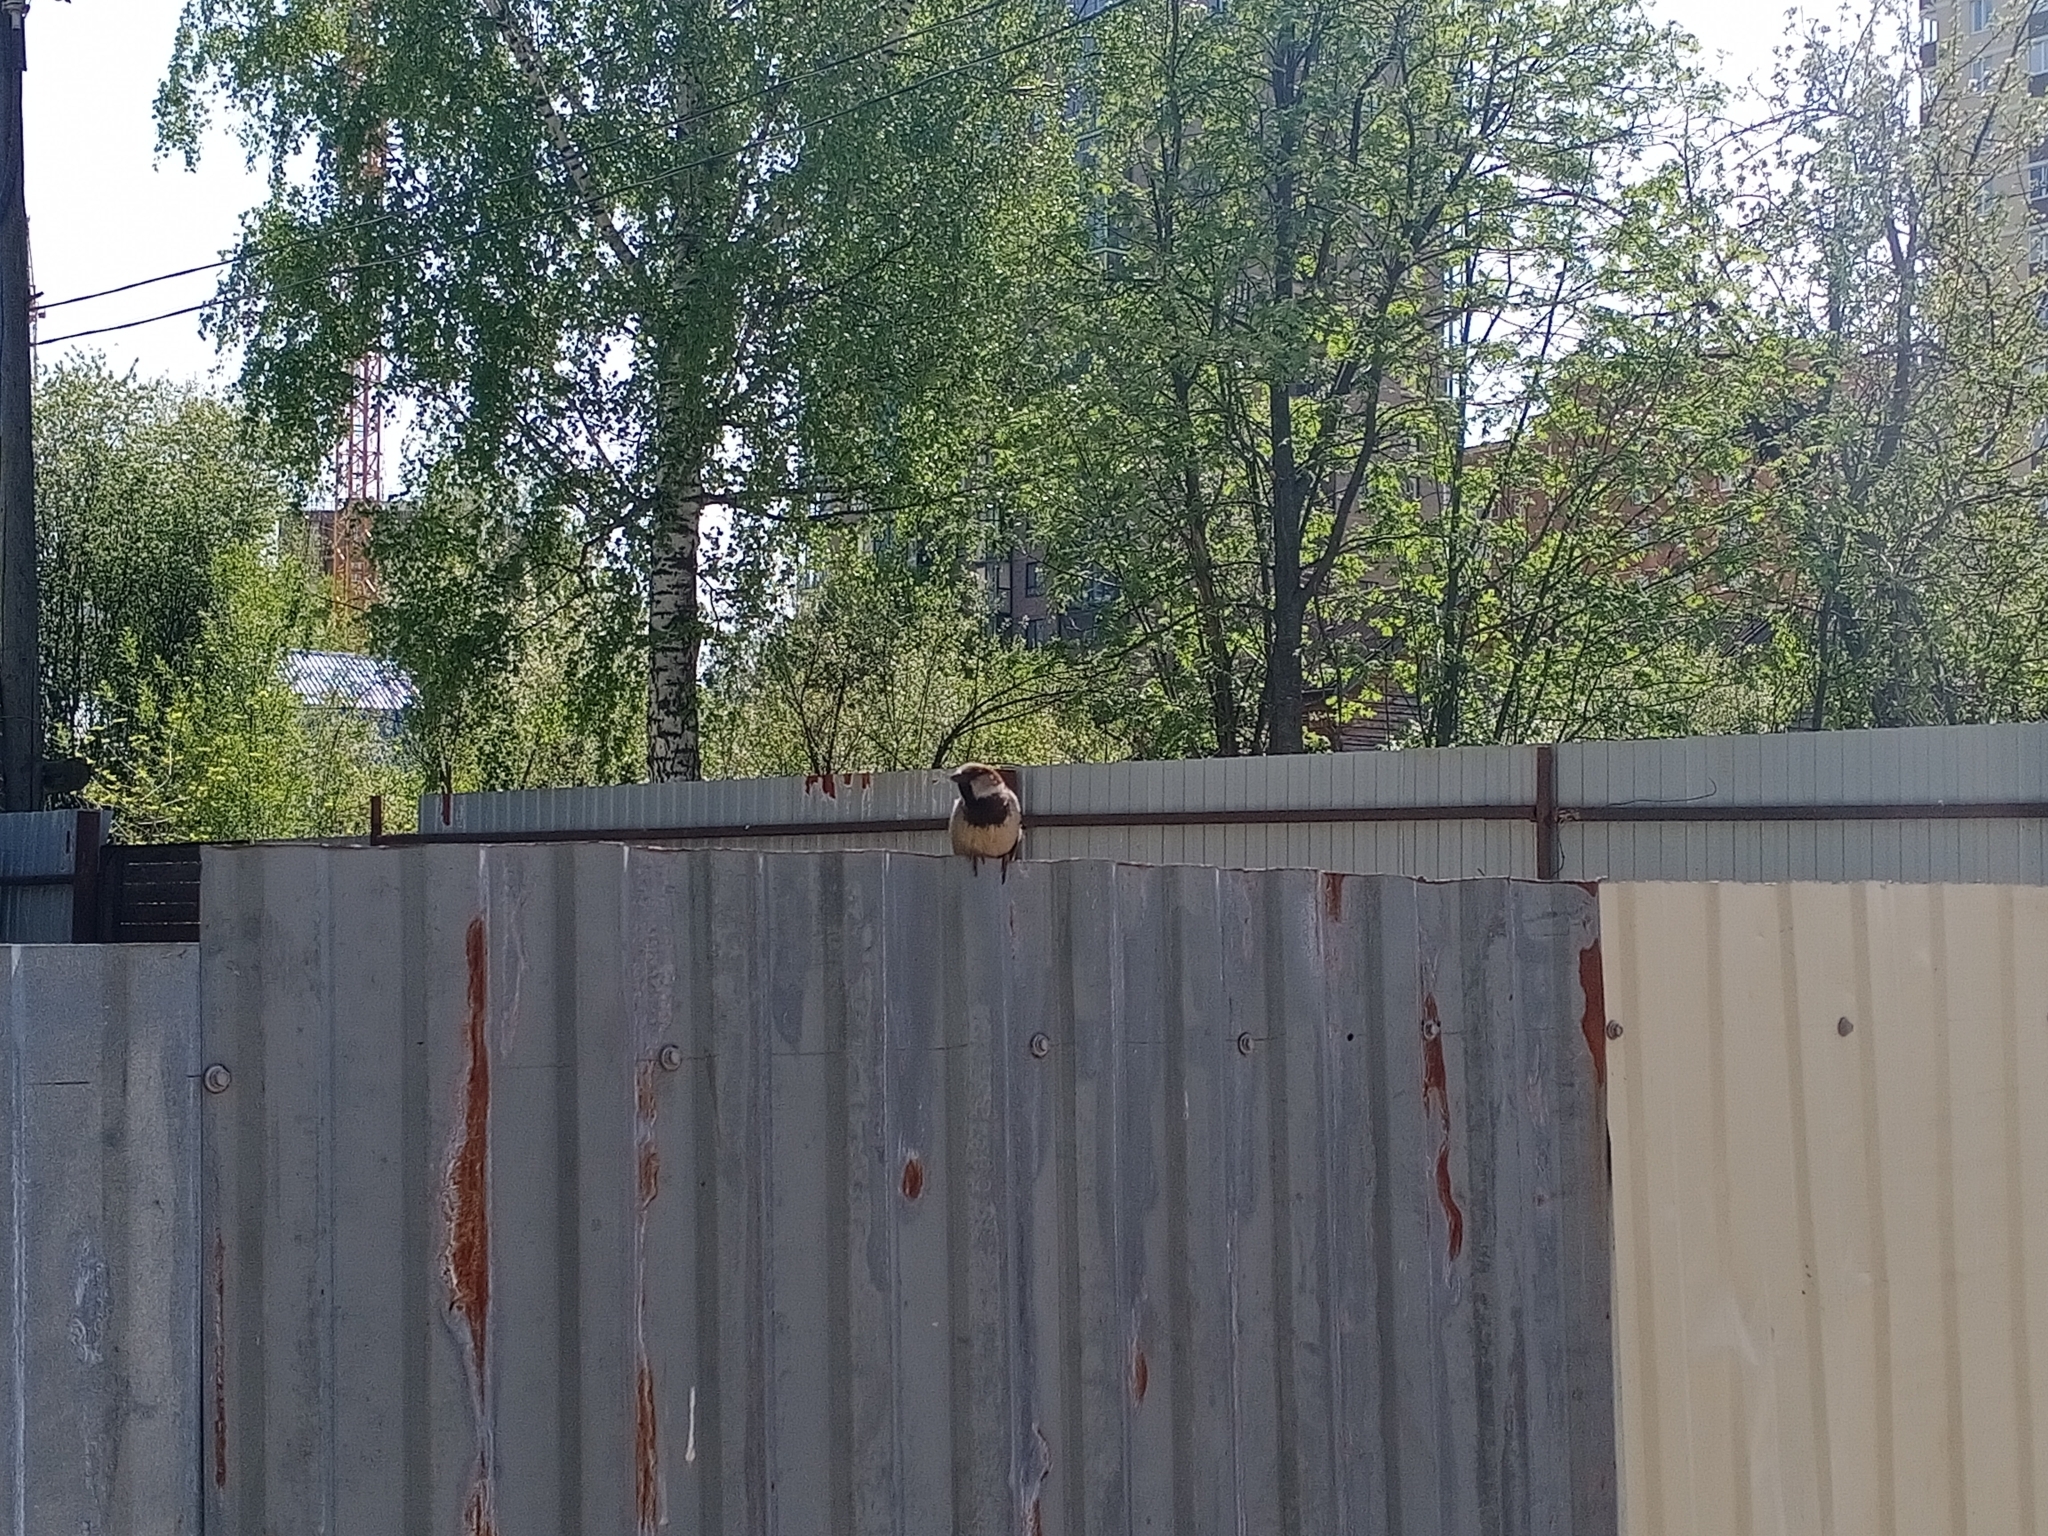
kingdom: Animalia
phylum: Chordata
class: Aves
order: Passeriformes
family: Passeridae
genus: Passer
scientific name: Passer domesticus
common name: House sparrow
